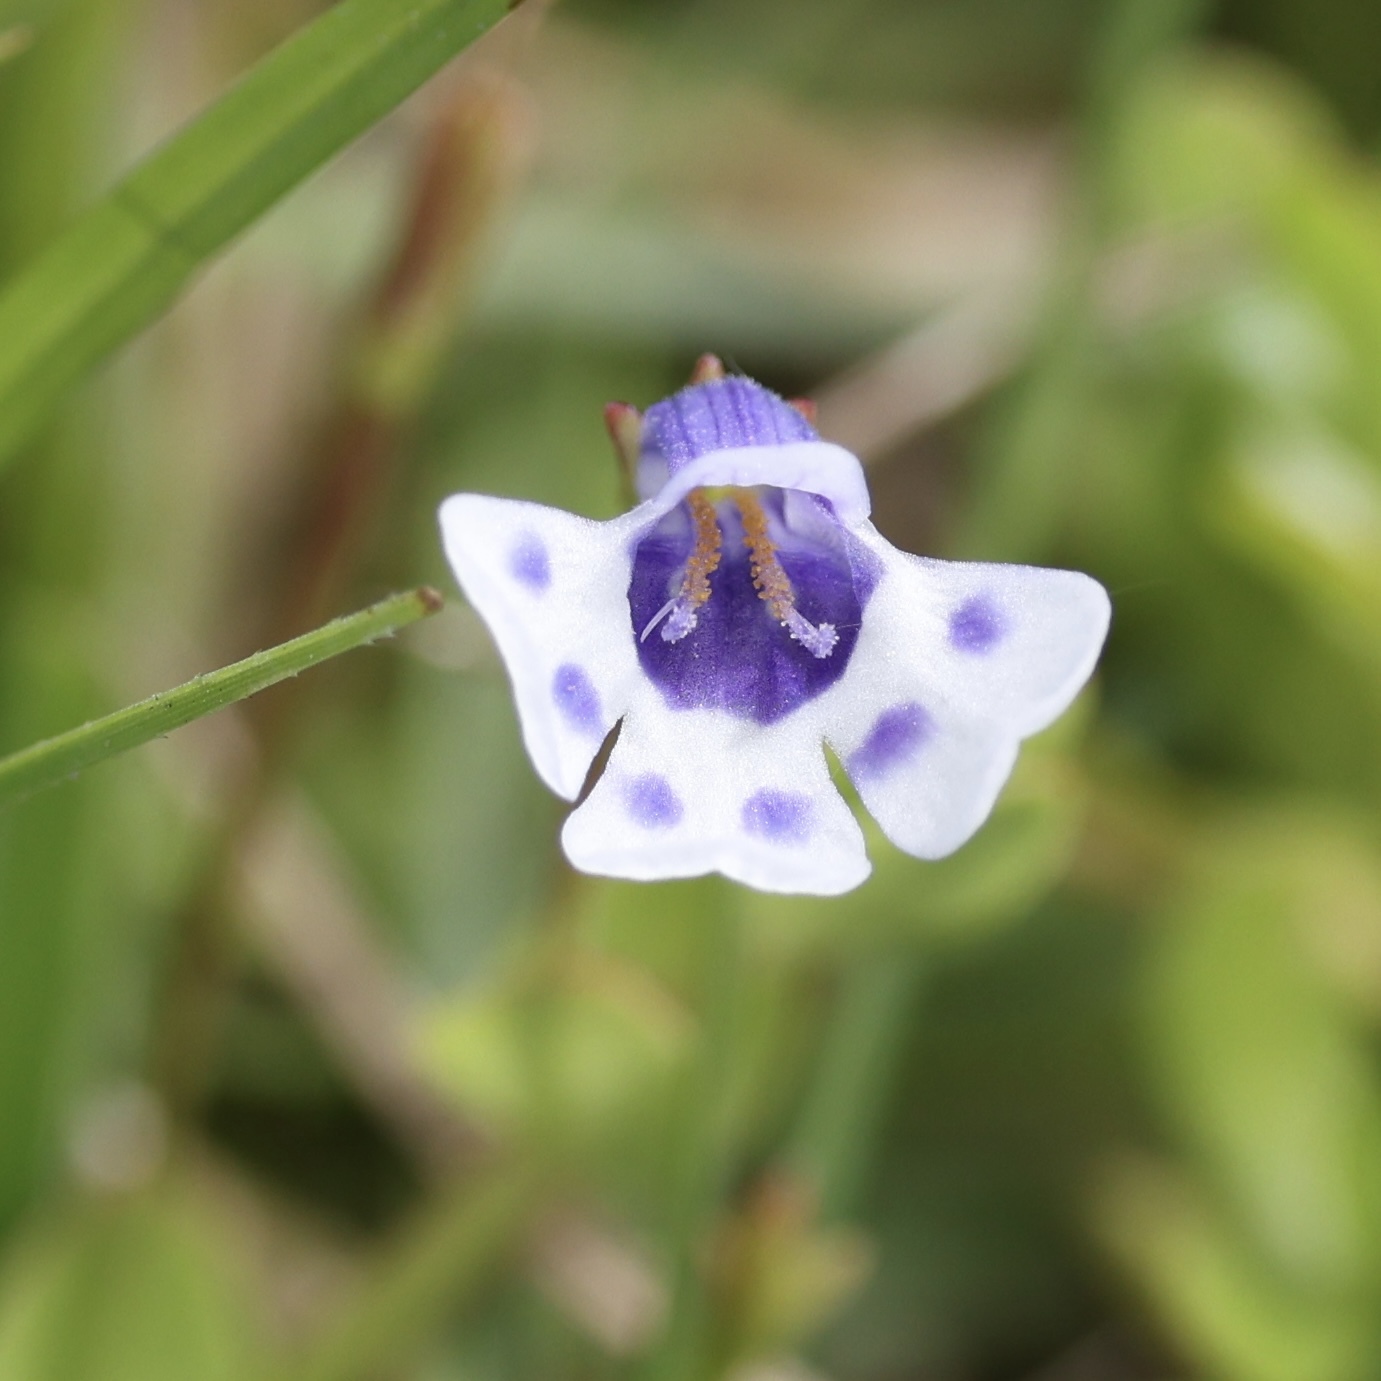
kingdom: Plantae
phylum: Tracheophyta
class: Magnoliopsida
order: Lamiales
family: Linderniaceae
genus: Lindernia
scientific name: Lindernia grandiflora
